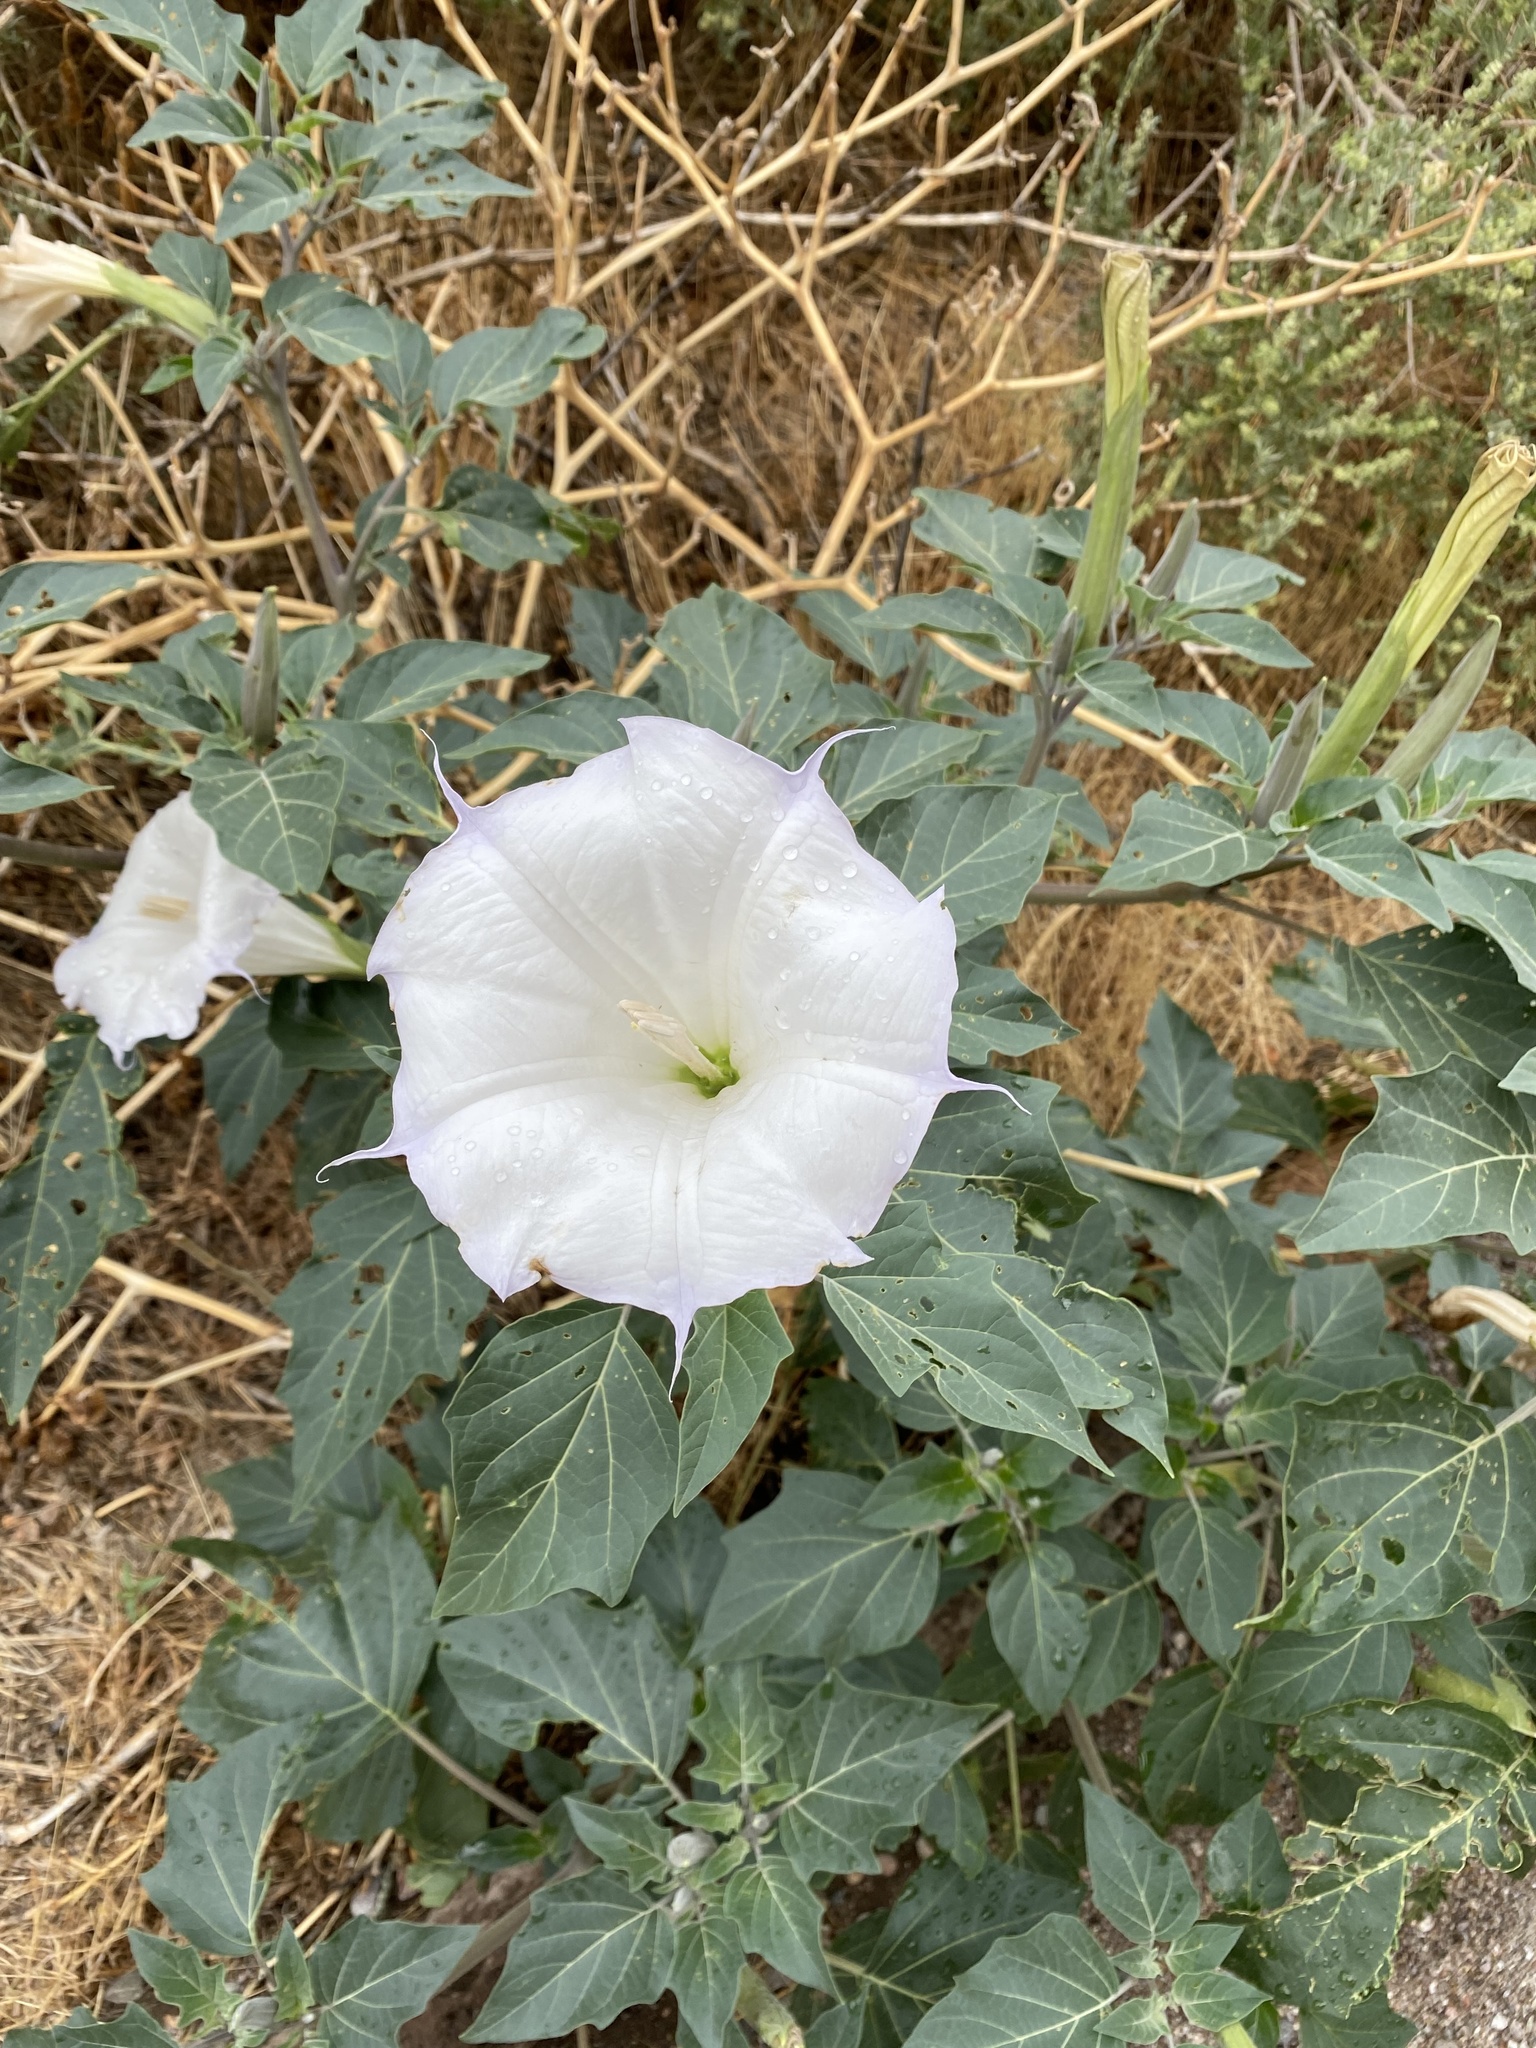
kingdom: Plantae
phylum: Tracheophyta
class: Magnoliopsida
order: Solanales
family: Solanaceae
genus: Datura
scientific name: Datura wrightii
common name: Sacred thorn-apple
